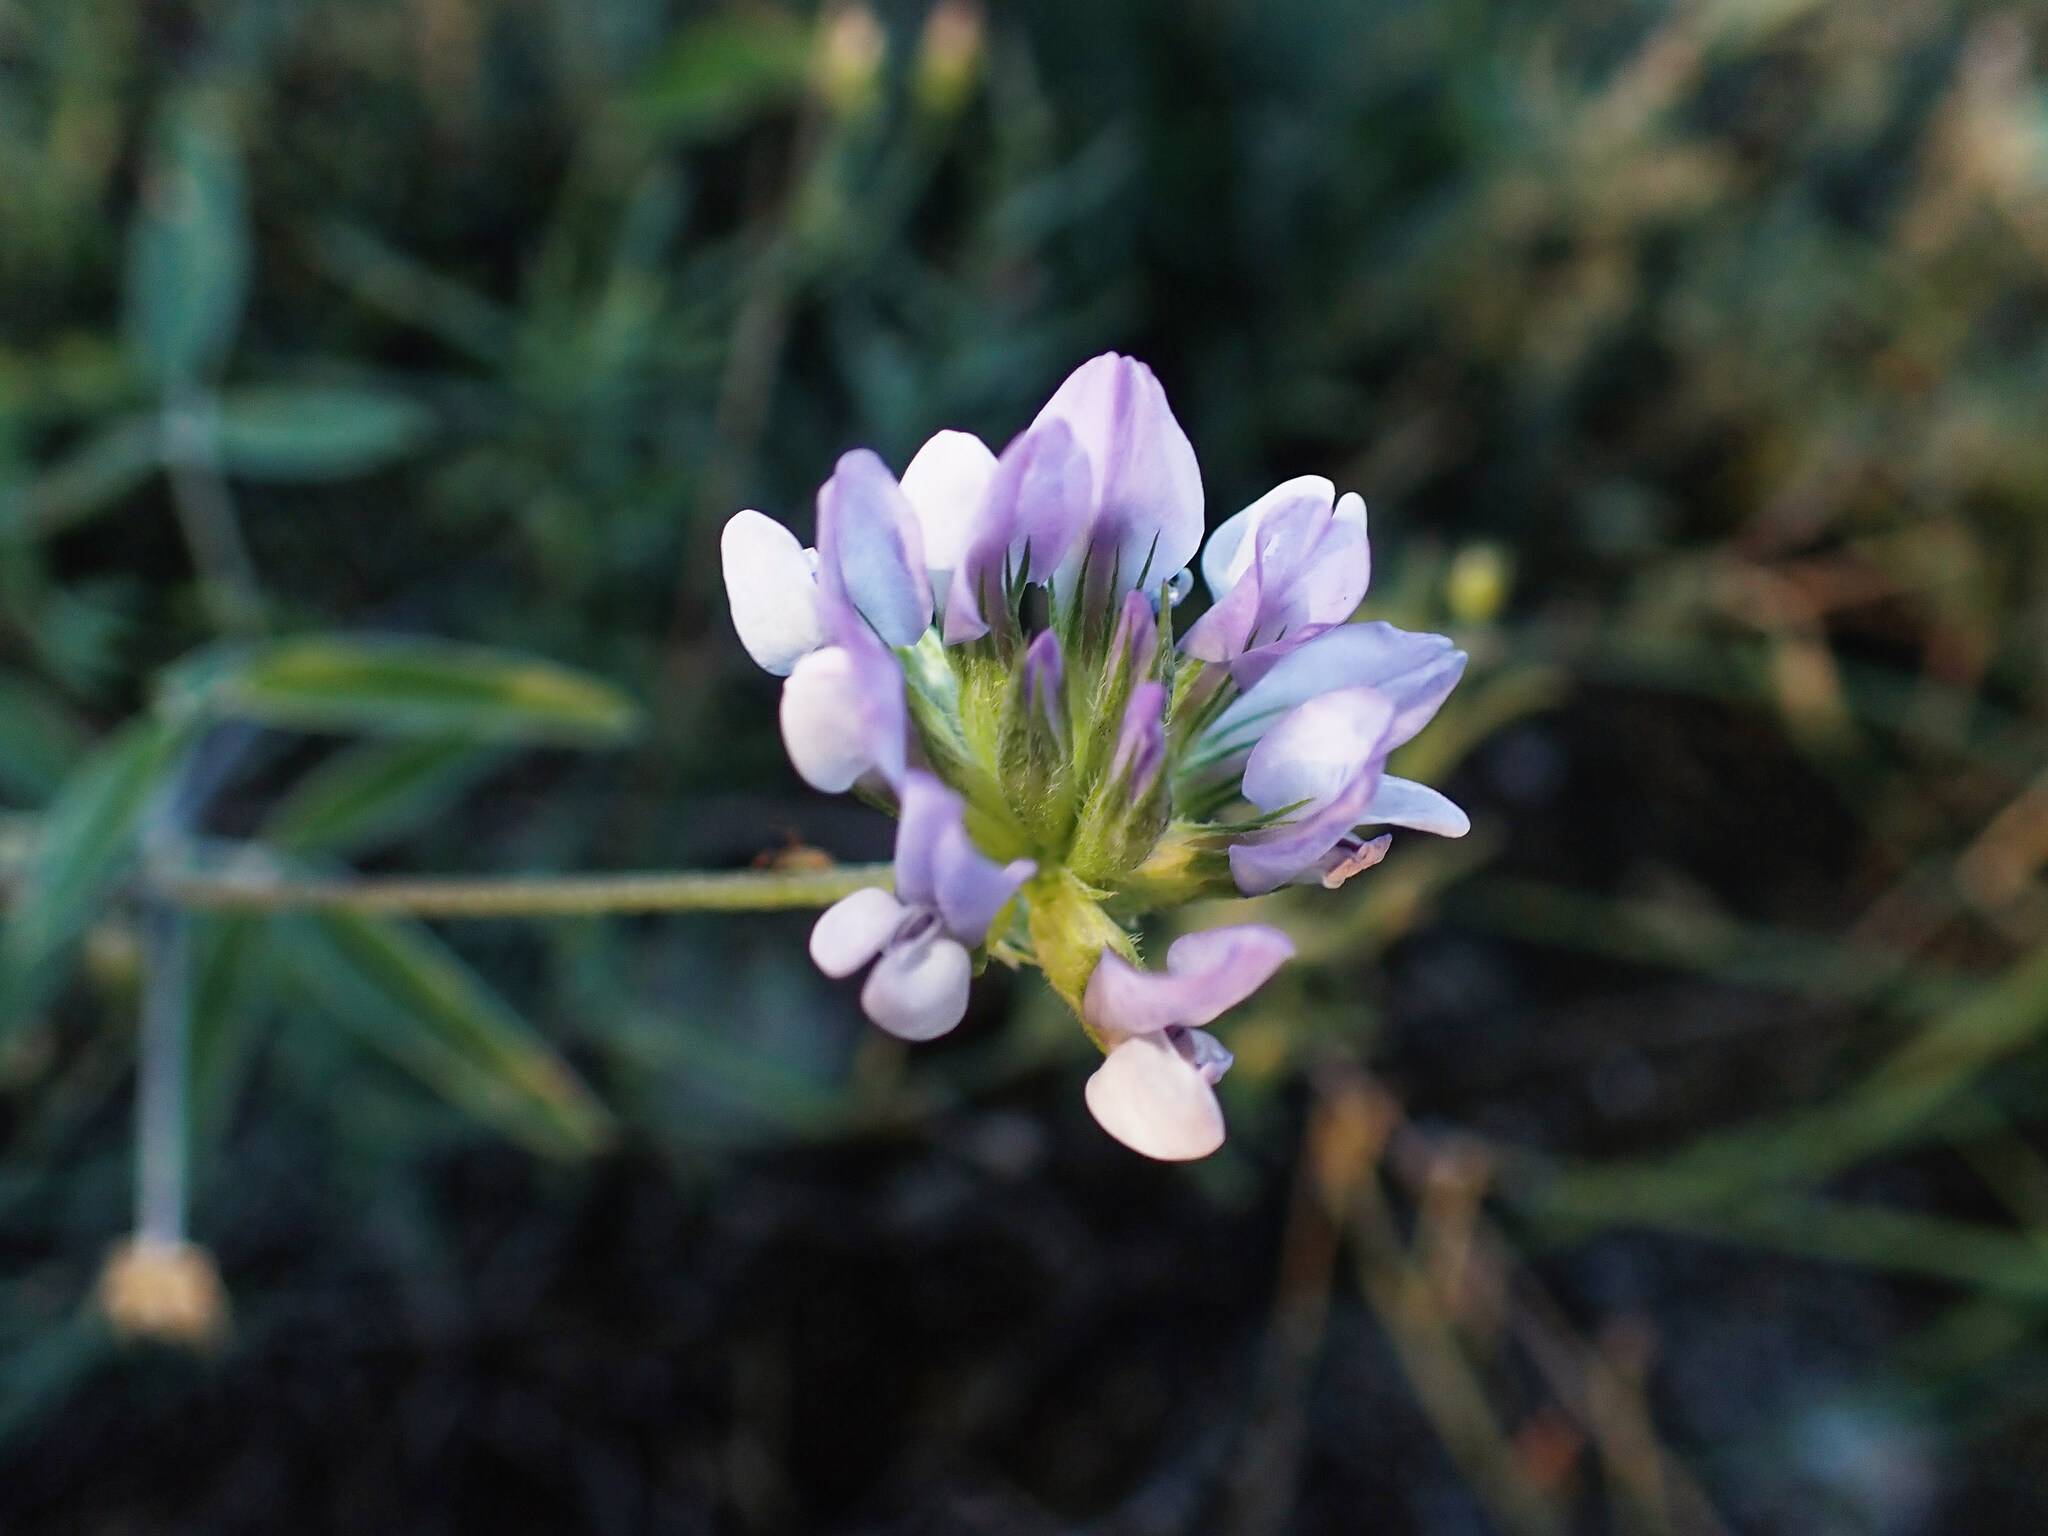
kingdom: Plantae
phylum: Tracheophyta
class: Magnoliopsida
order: Fabales
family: Fabaceae
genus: Bituminaria
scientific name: Bituminaria bituminosa
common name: Arabian pea
